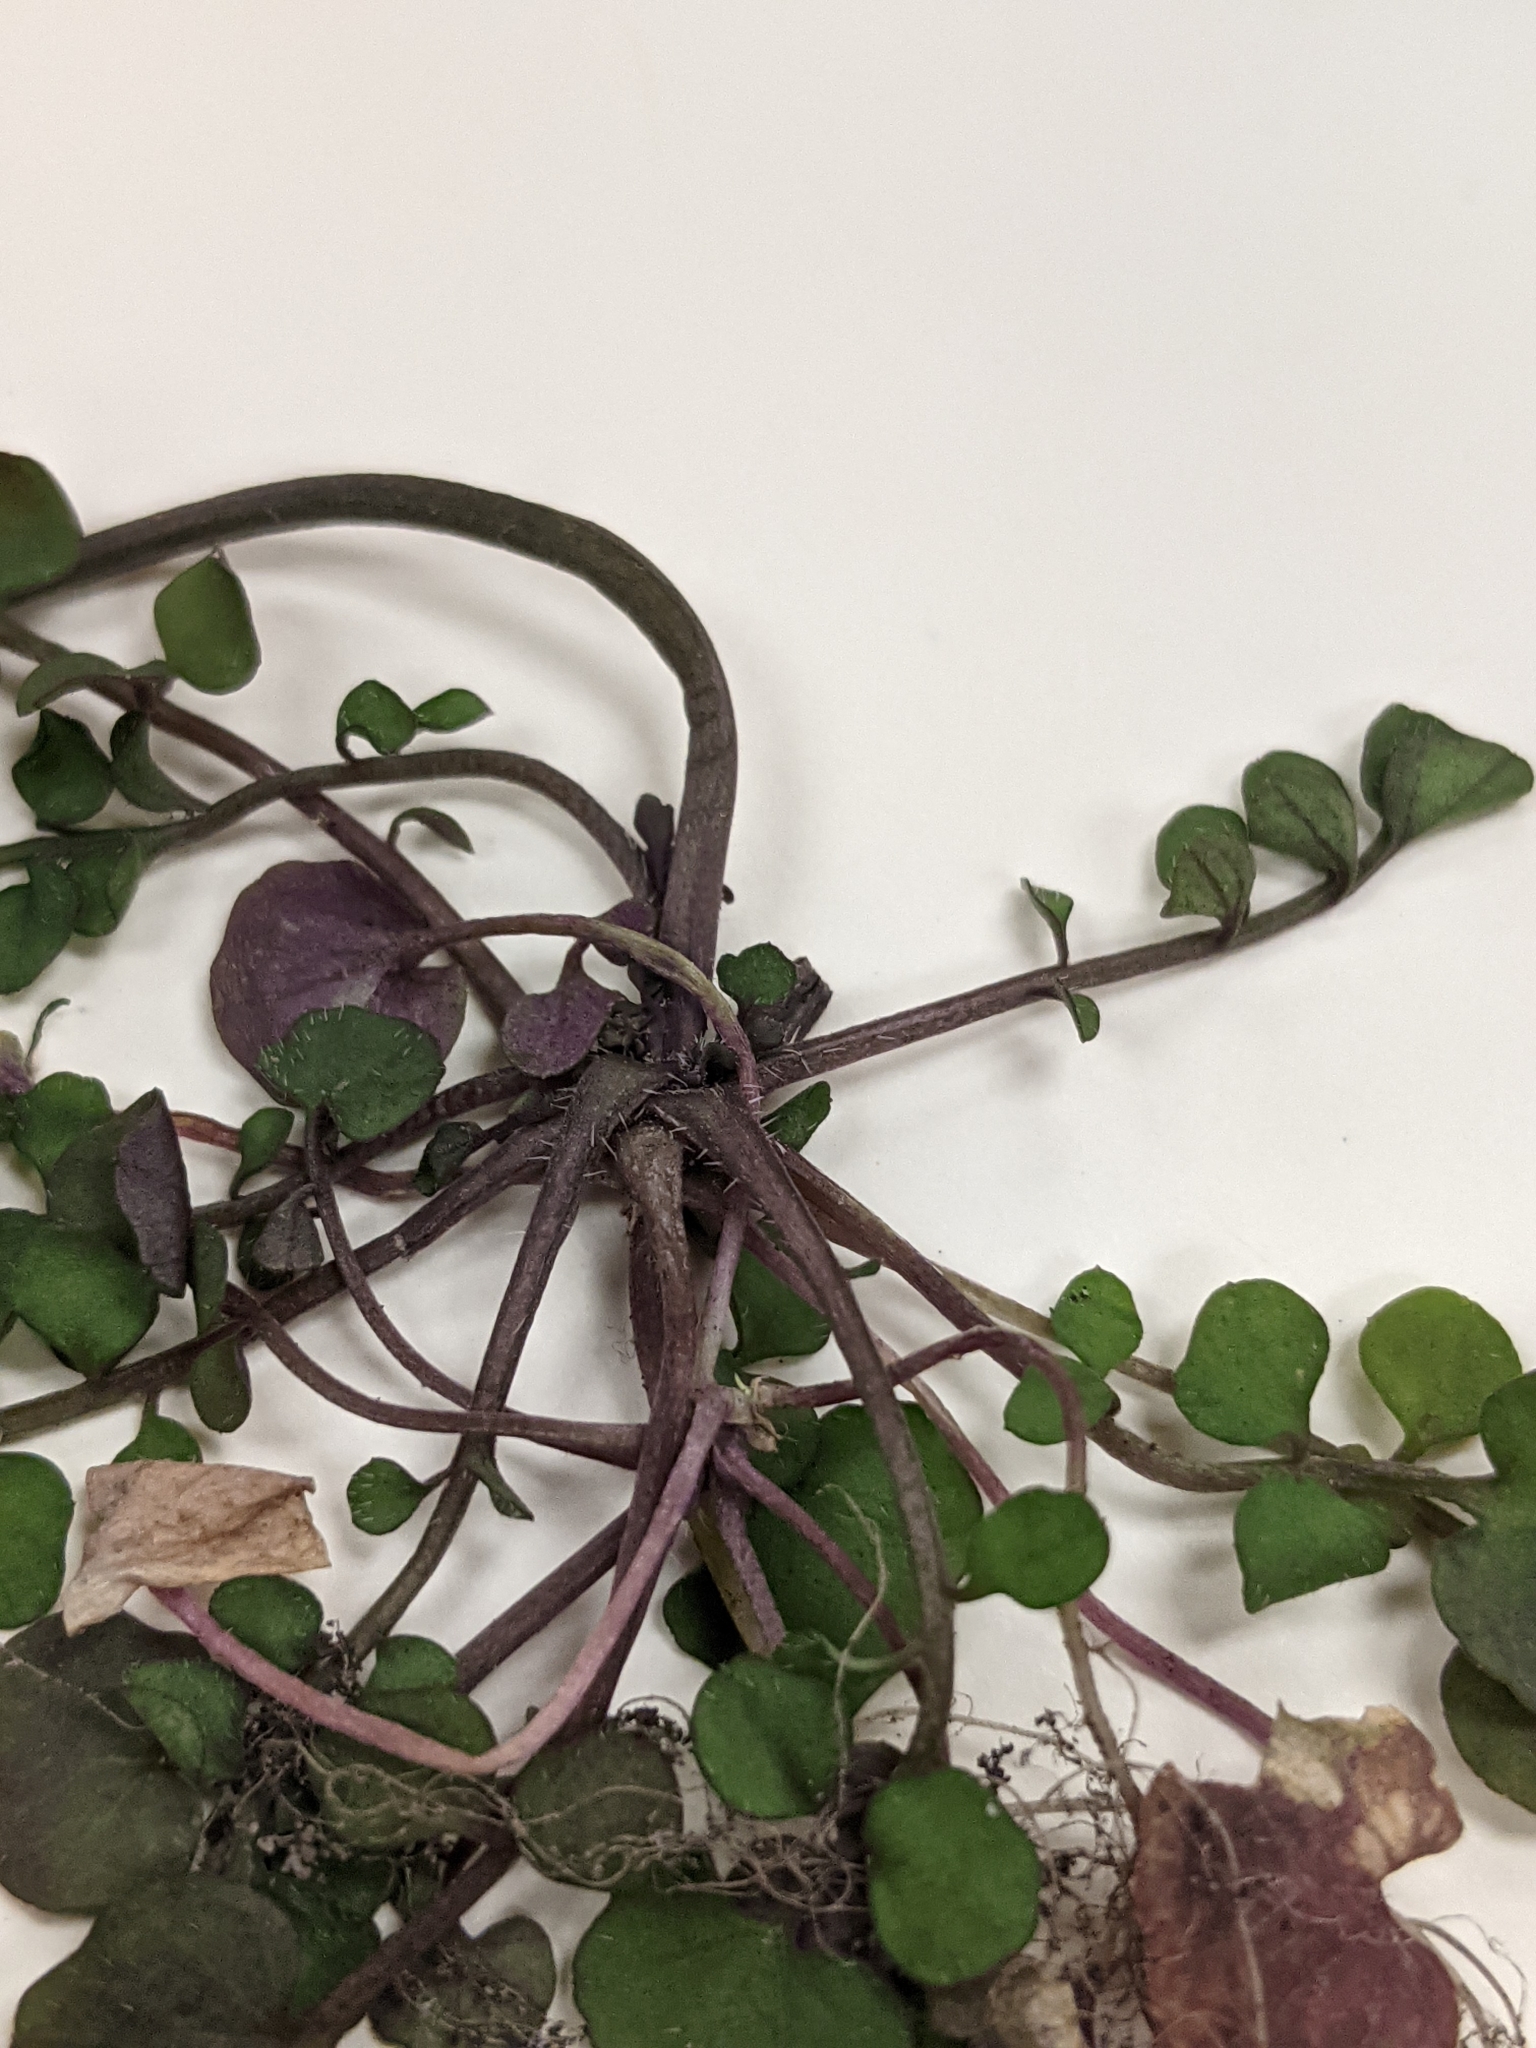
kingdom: Plantae
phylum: Tracheophyta
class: Magnoliopsida
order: Brassicales
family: Brassicaceae
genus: Cardamine
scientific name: Cardamine hirsuta
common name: Hairy bittercress
